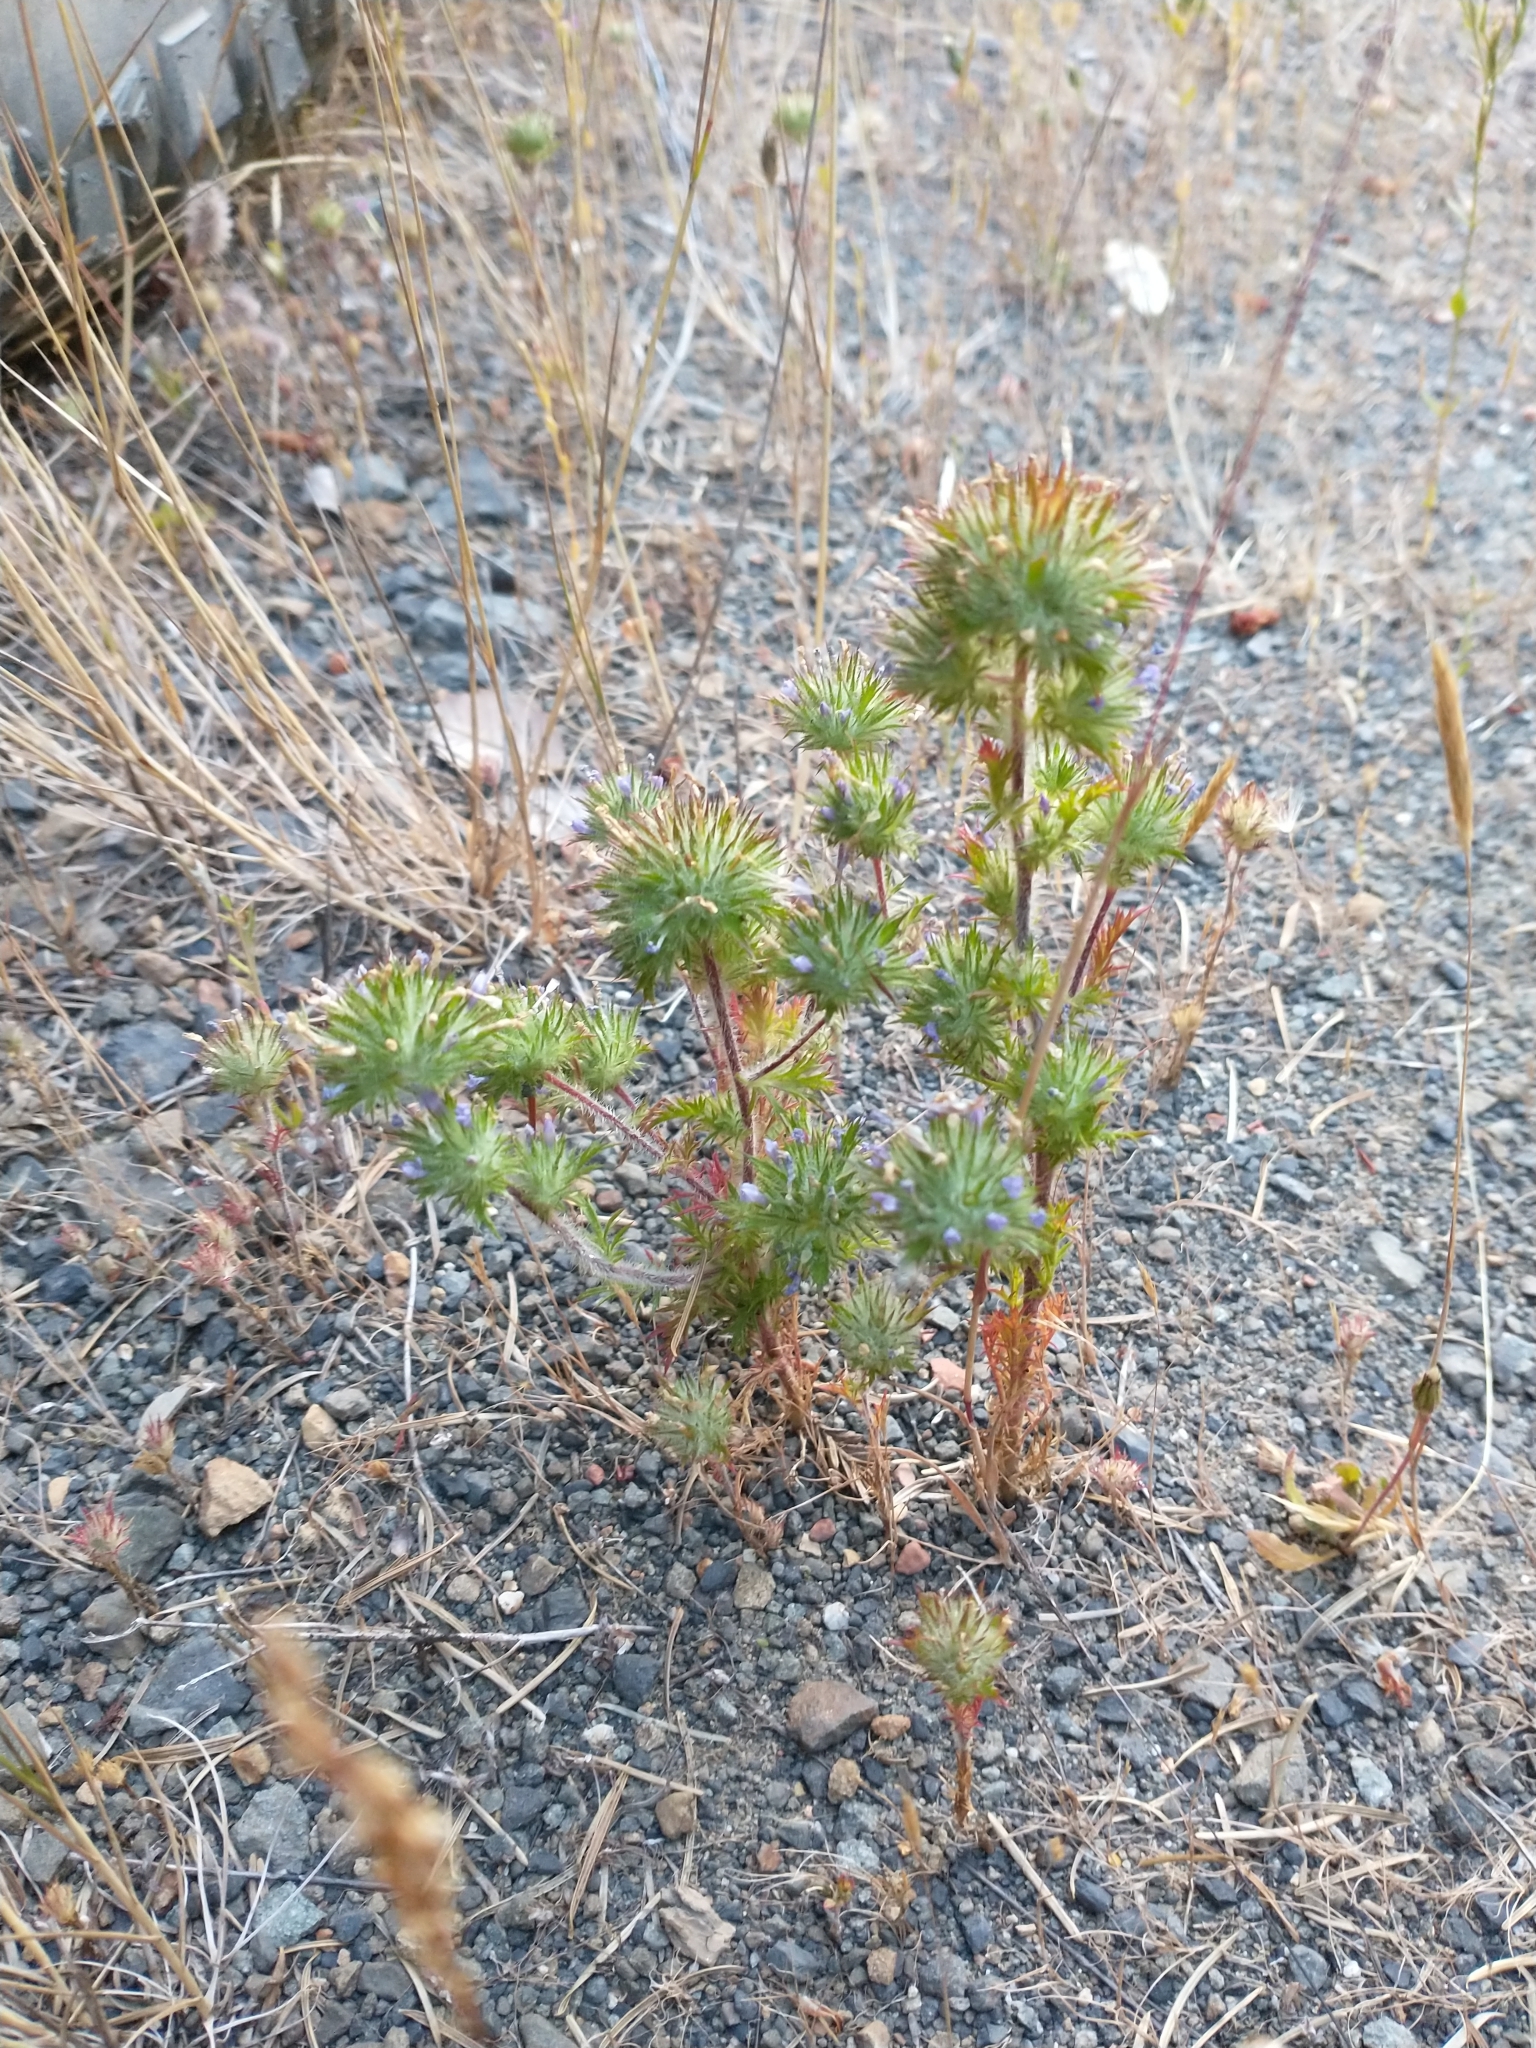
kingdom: Plantae
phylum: Tracheophyta
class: Magnoliopsida
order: Ericales
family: Polemoniaceae
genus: Navarretia
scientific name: Navarretia squarrosa
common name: Skunkweed
